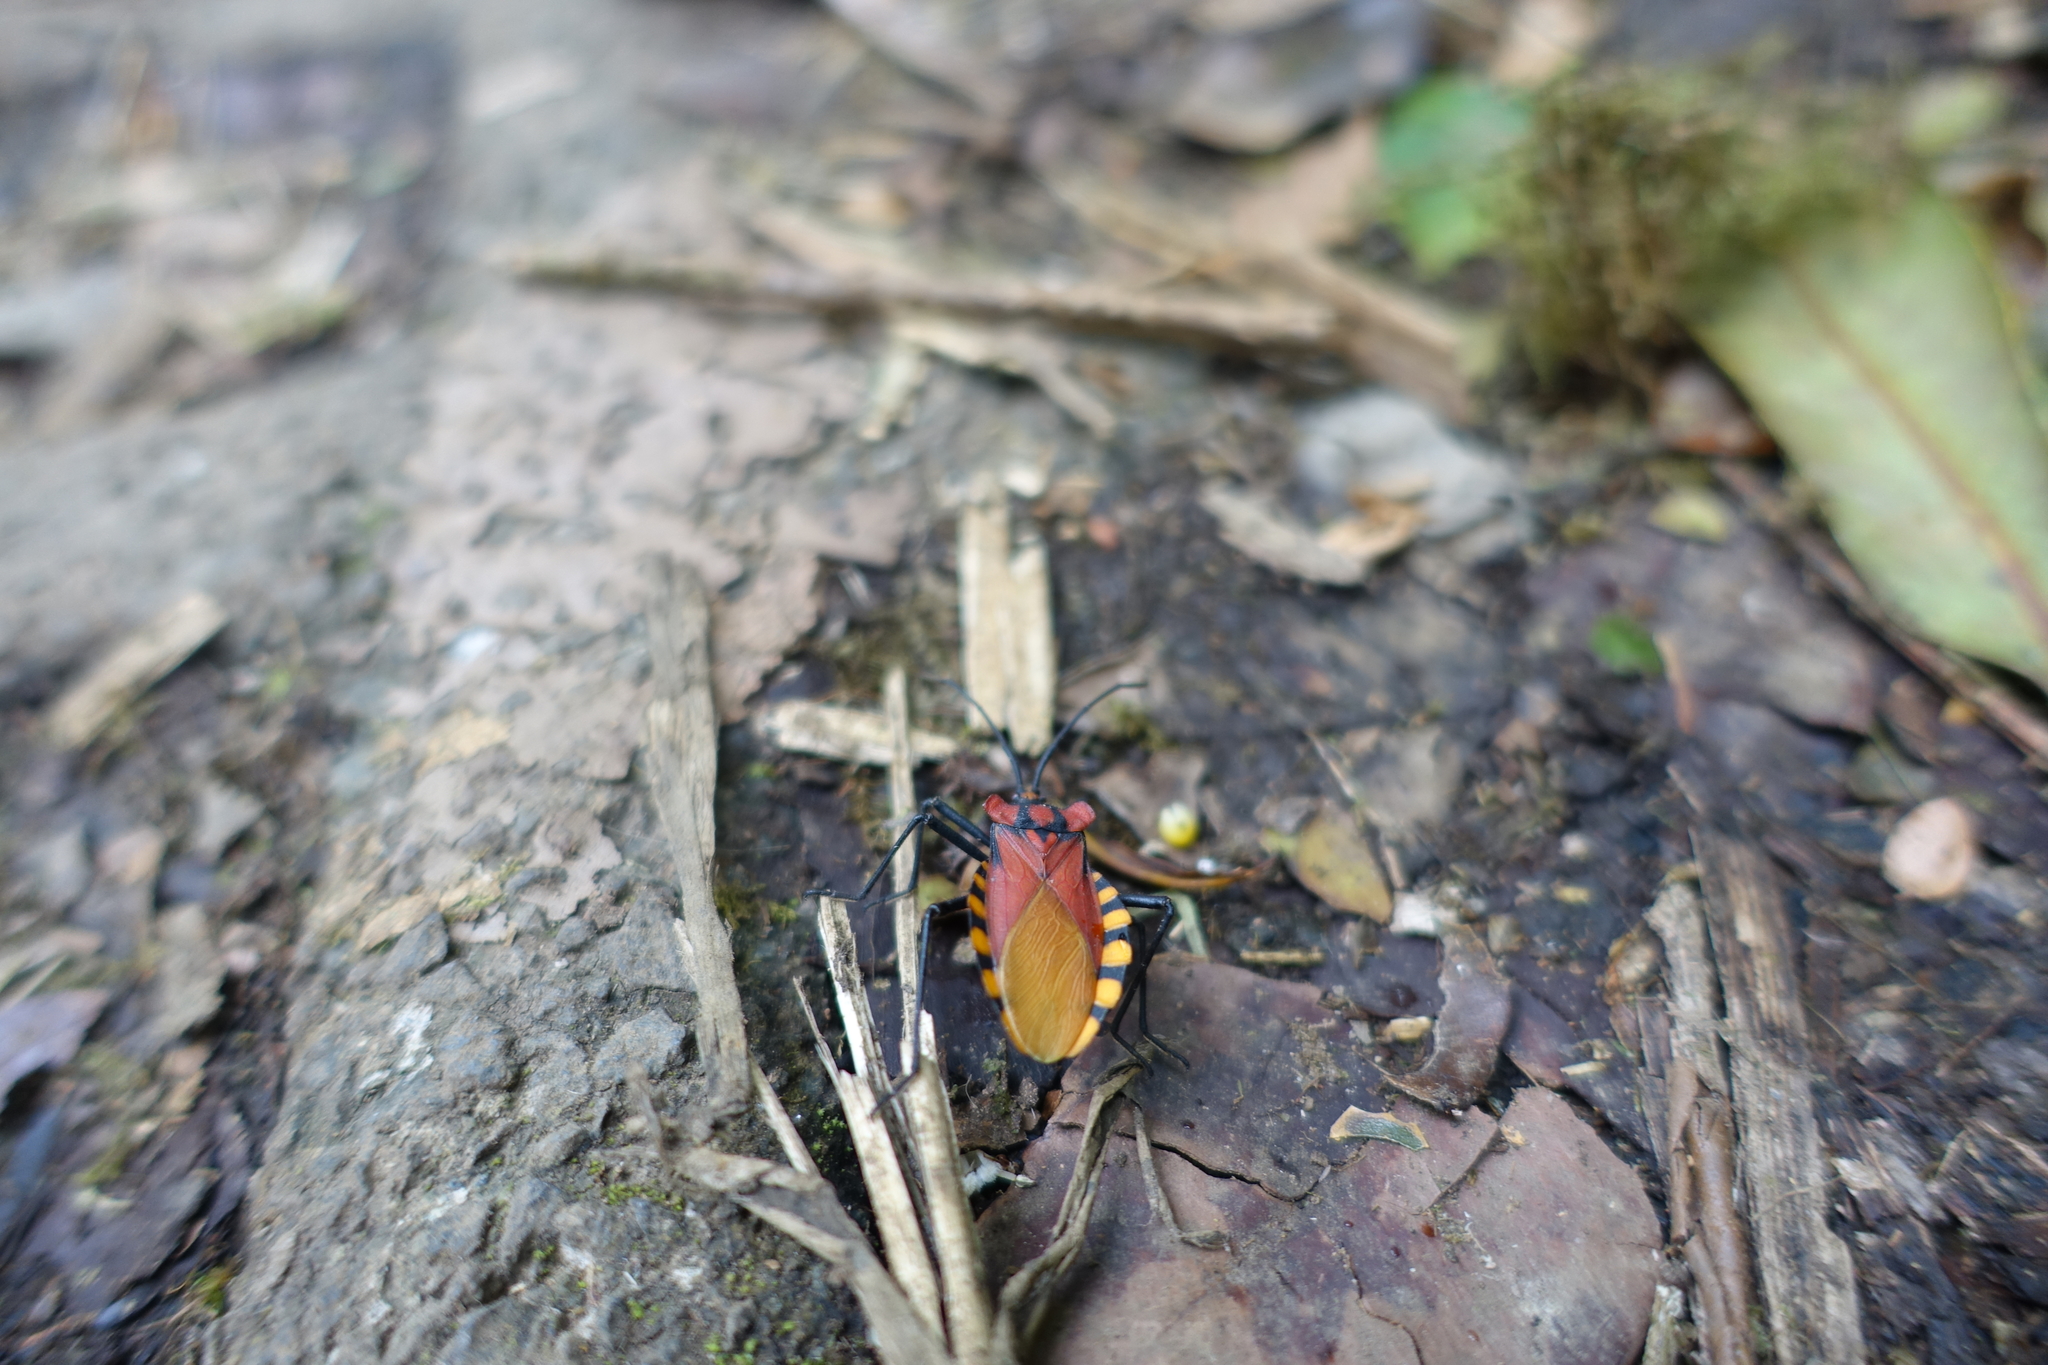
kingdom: Animalia
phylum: Arthropoda
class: Insecta
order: Hemiptera
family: Coreidae
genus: Spartocera
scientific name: Spartocera gigantea
